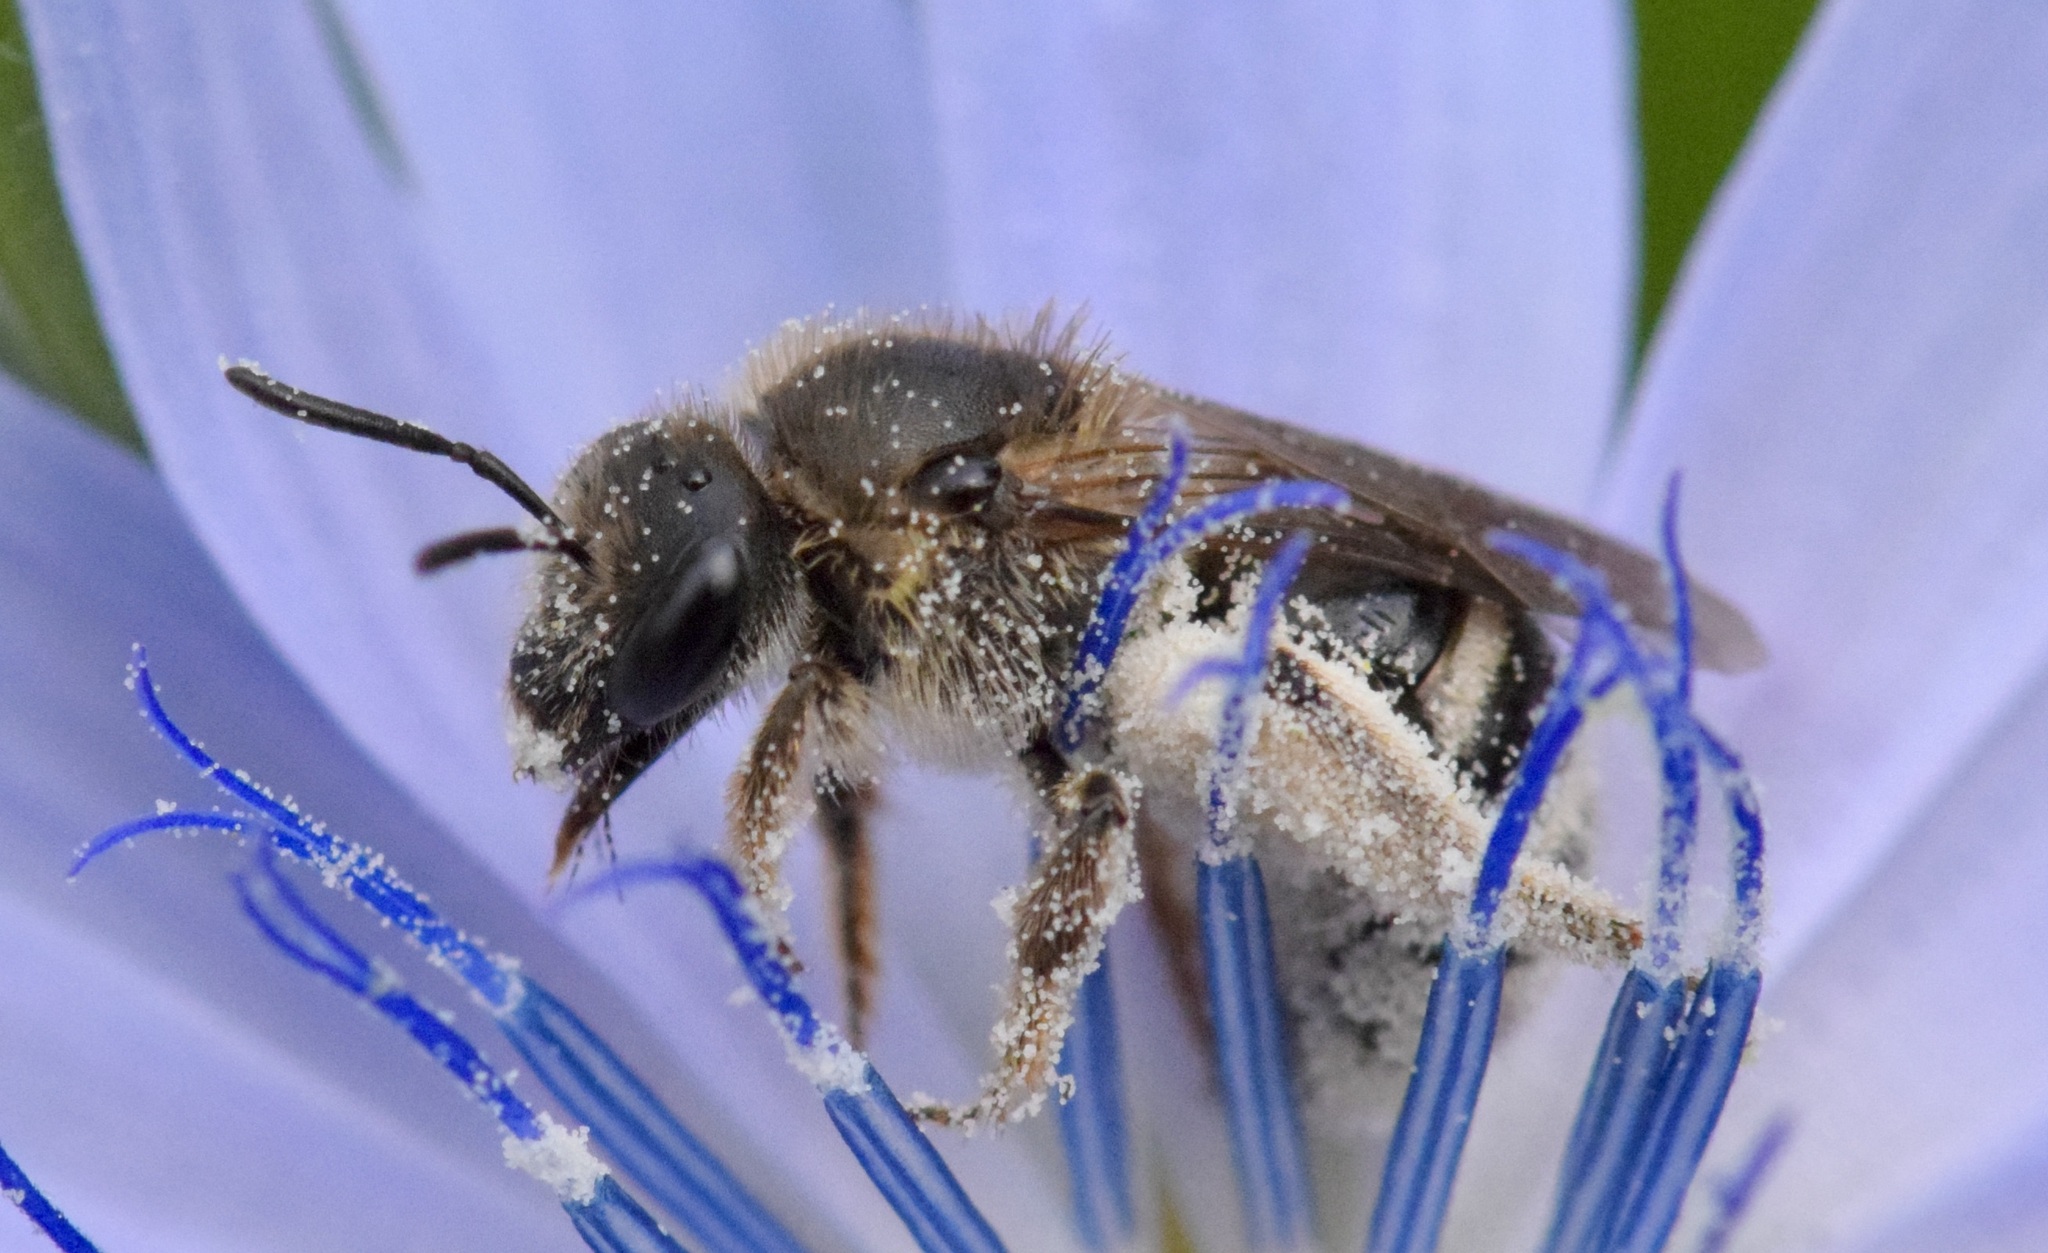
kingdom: Animalia
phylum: Arthropoda
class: Insecta
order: Hymenoptera
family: Halictidae
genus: Lasioglossum
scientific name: Lasioglossum leucozonium
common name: White-zoned furrow bee
